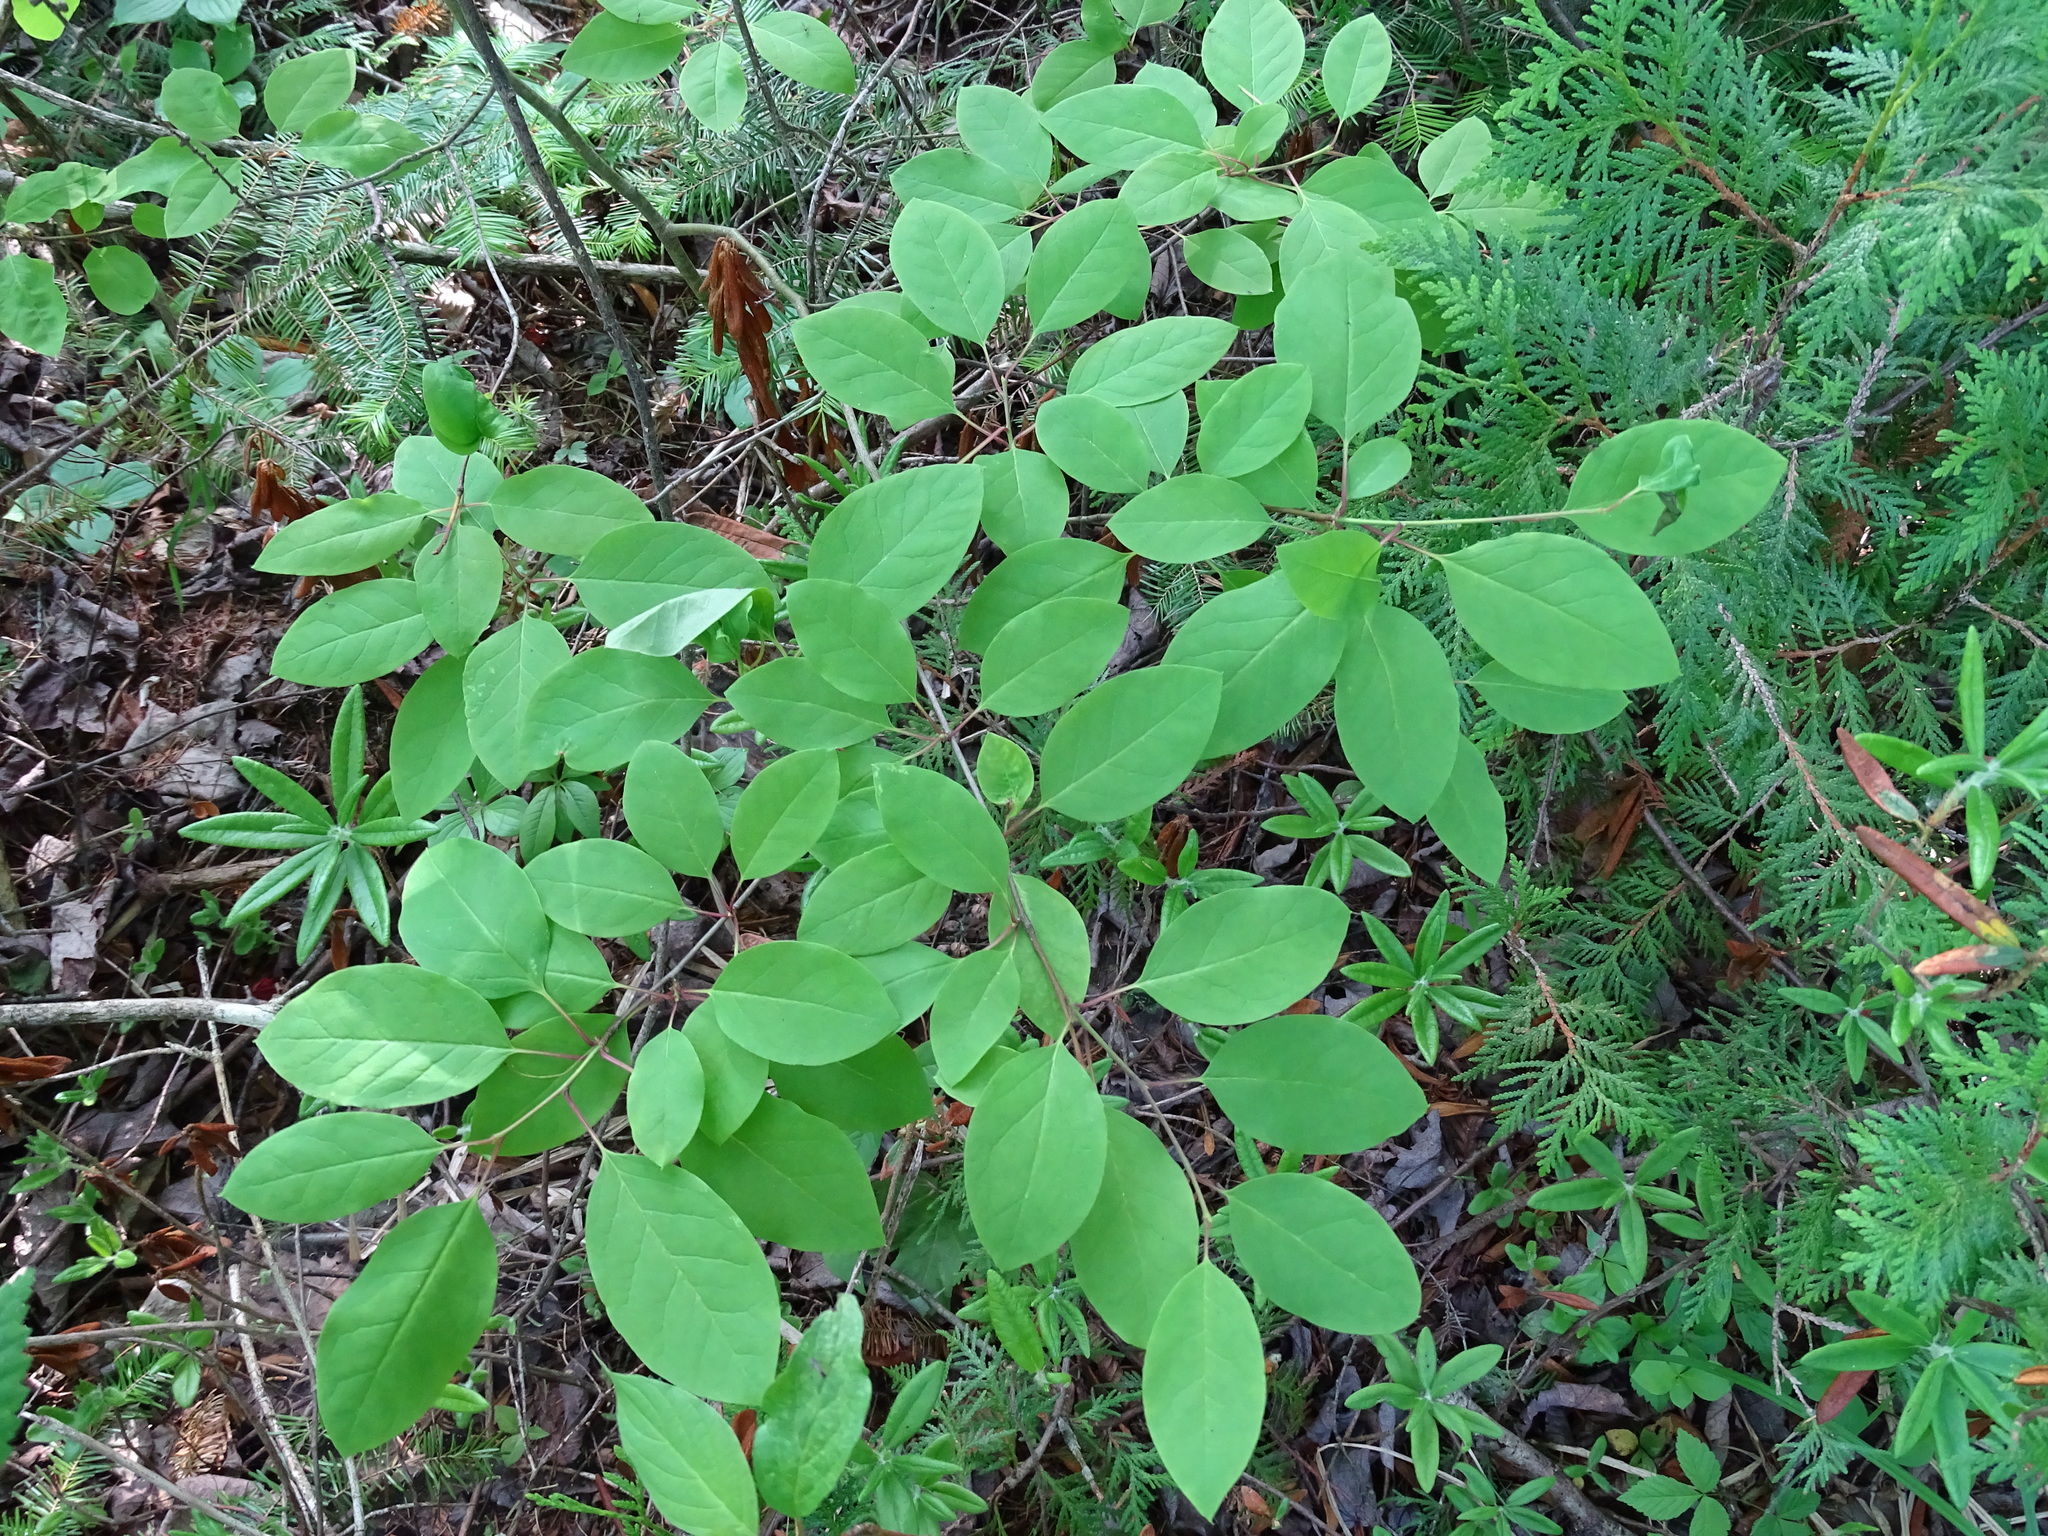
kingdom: Plantae
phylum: Tracheophyta
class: Magnoliopsida
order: Aquifoliales
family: Aquifoliaceae
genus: Ilex
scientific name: Ilex mucronata
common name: Catberry
